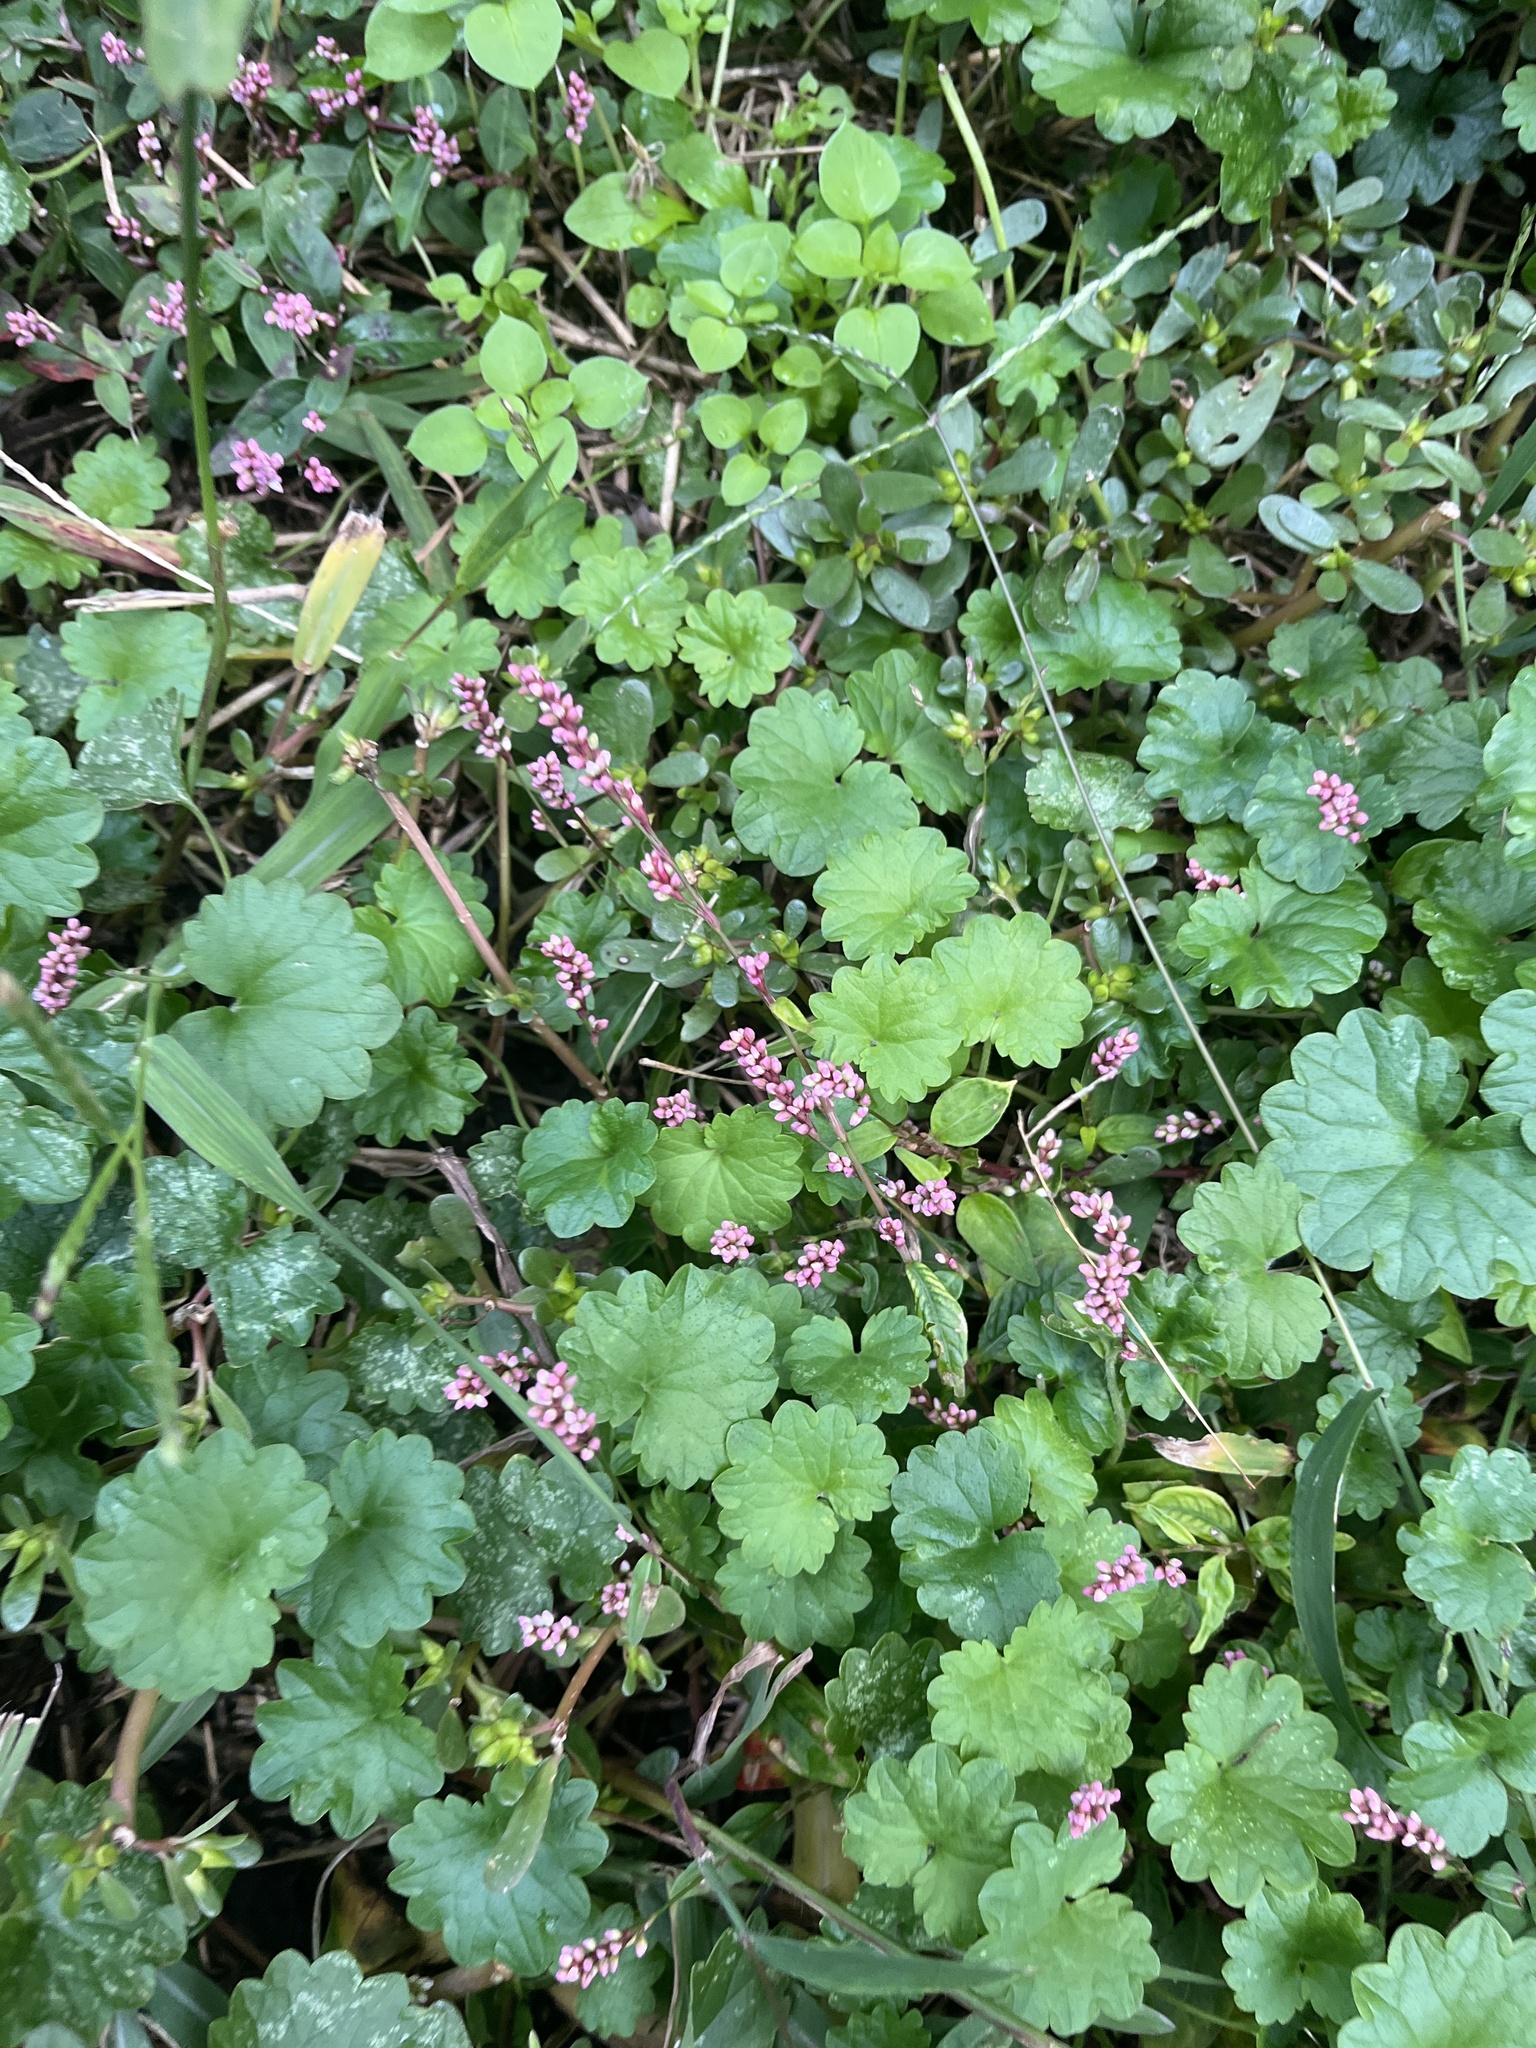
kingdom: Plantae
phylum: Tracheophyta
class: Magnoliopsida
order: Caryophyllales
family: Polygonaceae
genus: Persicaria
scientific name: Persicaria longiseta
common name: Bristly lady's-thumb
